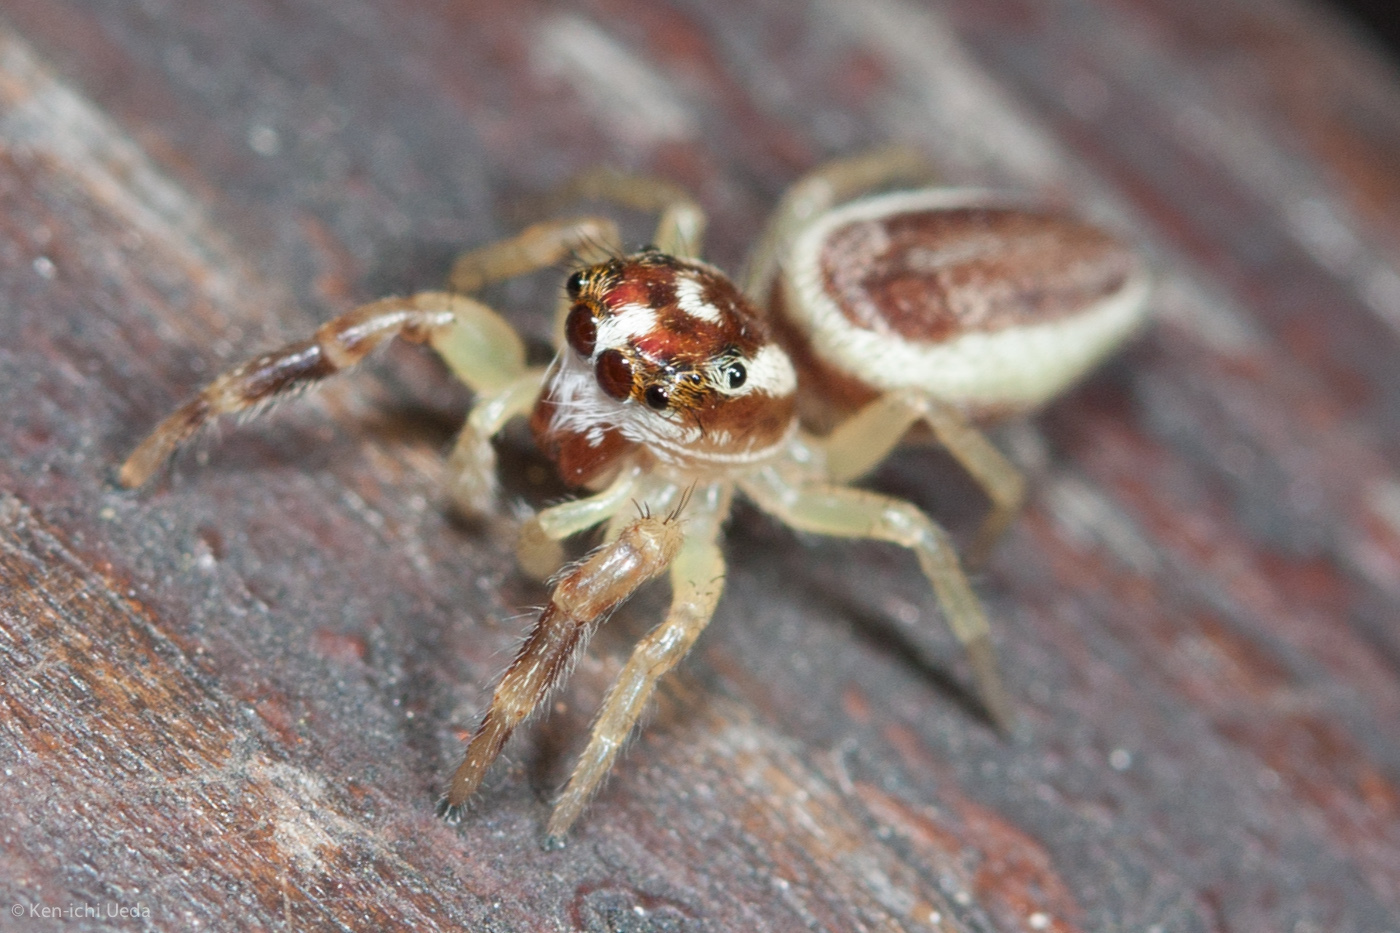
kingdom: Animalia
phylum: Arthropoda
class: Arachnida
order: Araneae
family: Salticidae
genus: Phanias
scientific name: Phanias harfordi
